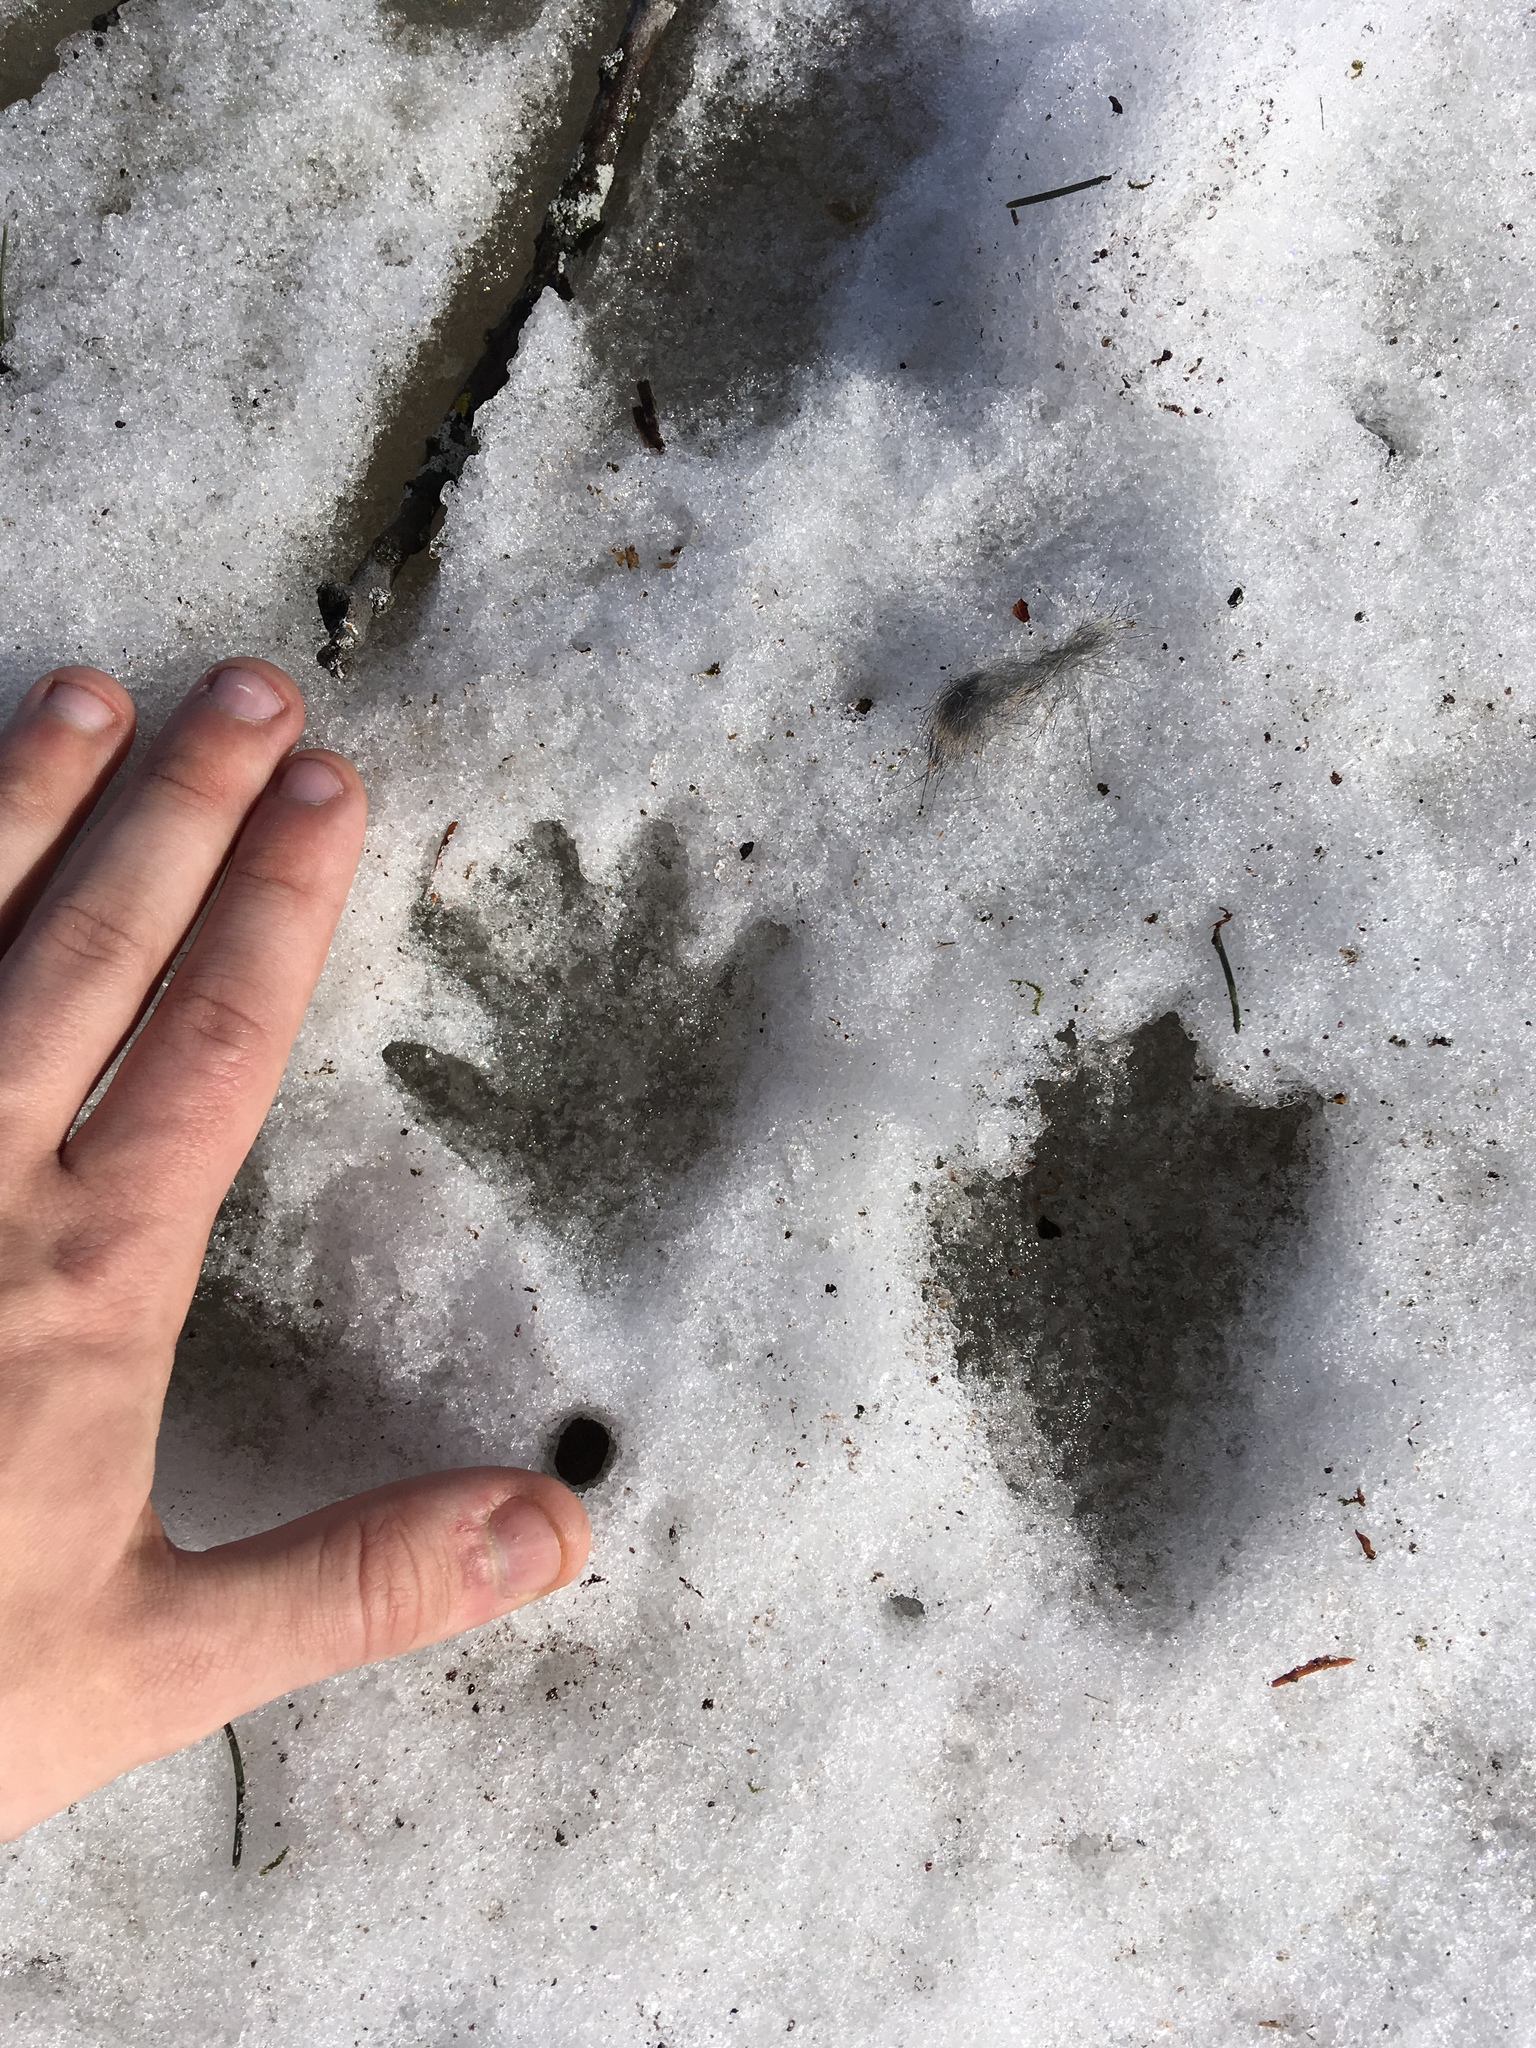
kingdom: Animalia
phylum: Chordata
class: Mammalia
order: Carnivora
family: Procyonidae
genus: Procyon
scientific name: Procyon lotor
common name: Raccoon
